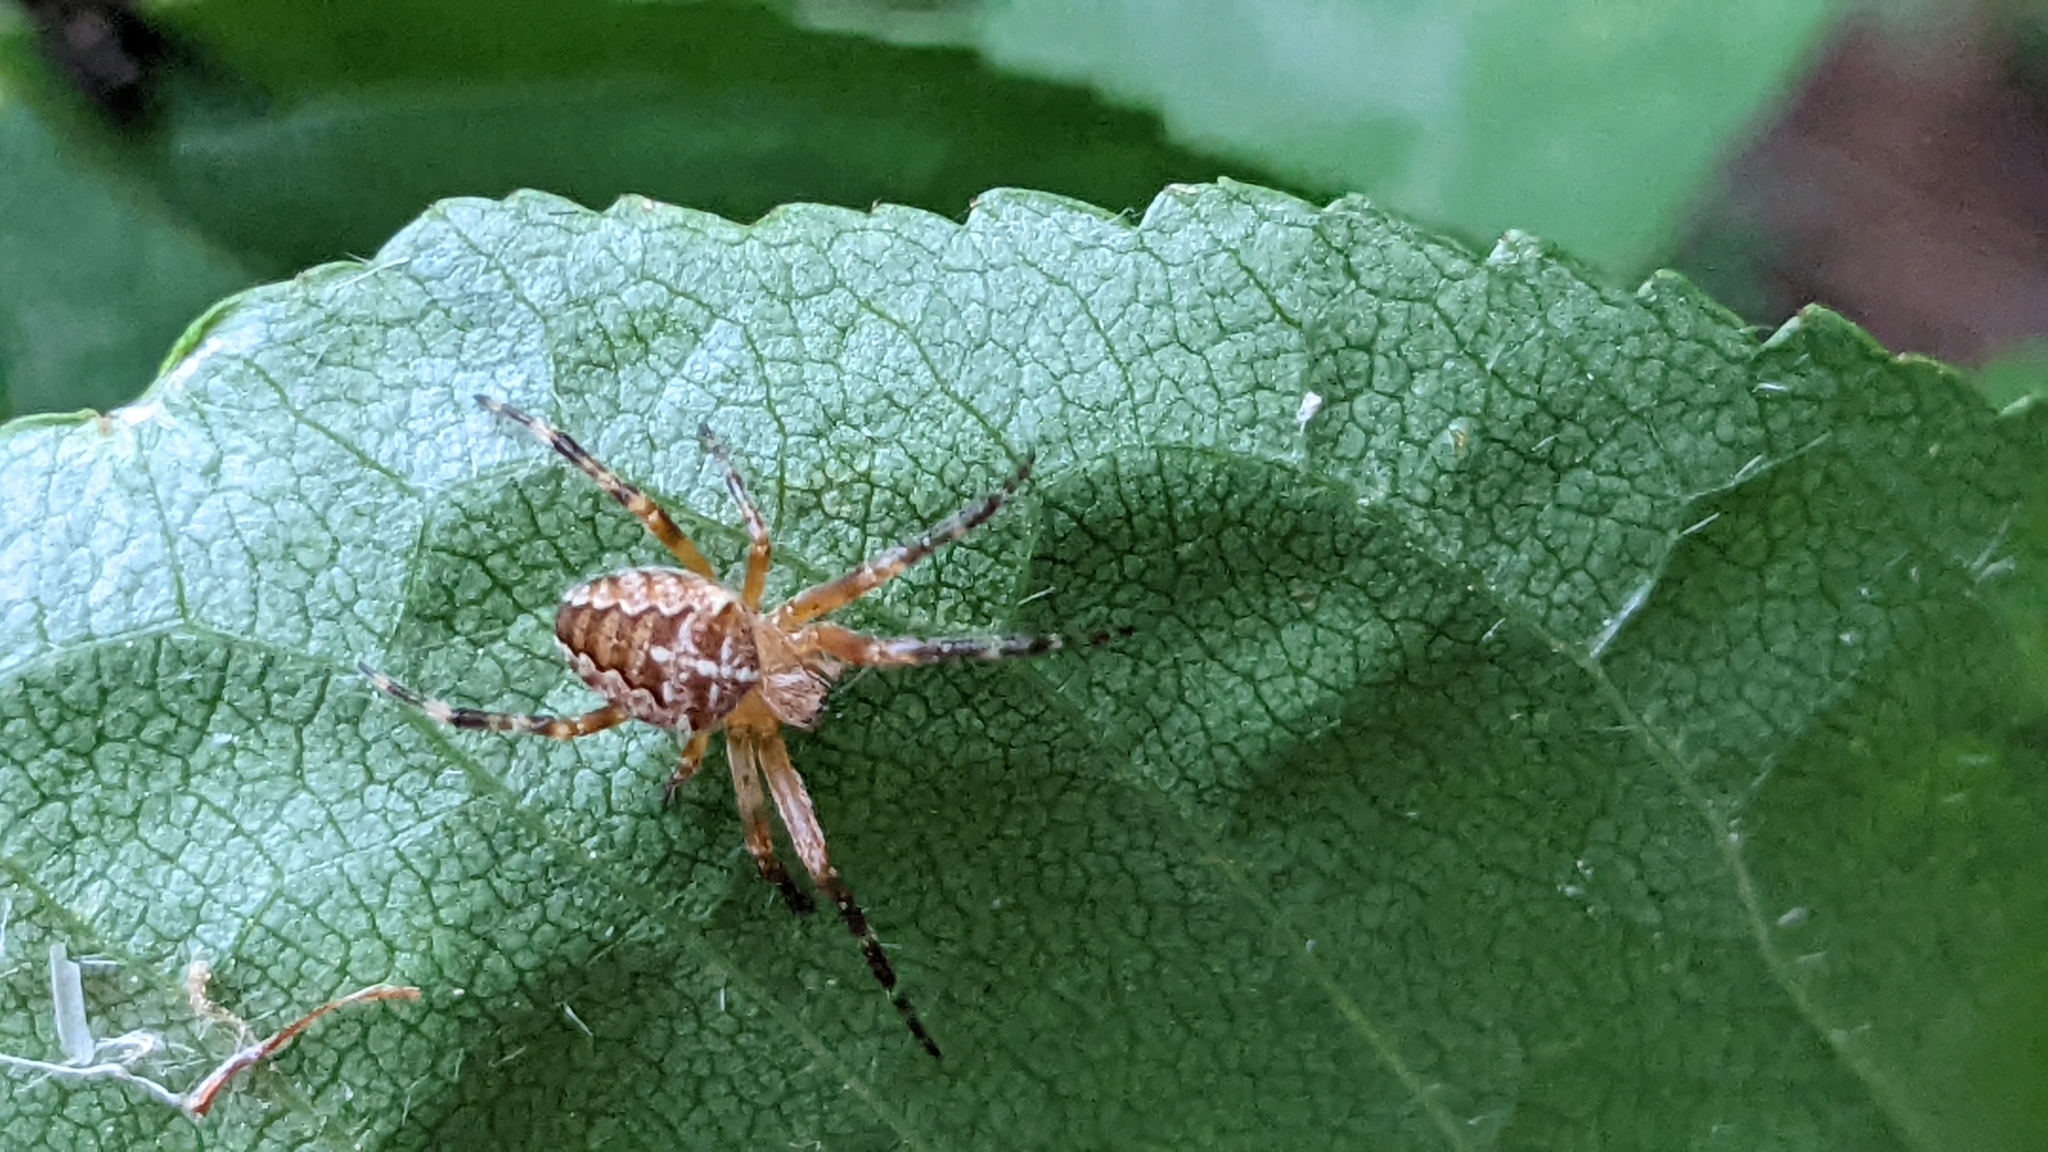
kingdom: Animalia
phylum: Arthropoda
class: Arachnida
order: Araneae
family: Araneidae
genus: Araneus
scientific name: Araneus diadematus
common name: Cross orbweaver
